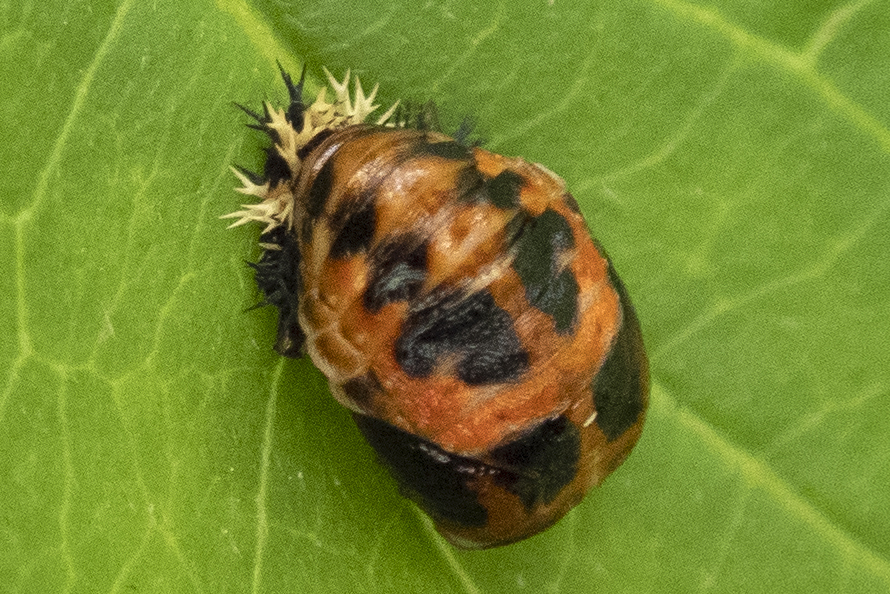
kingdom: Animalia
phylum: Arthropoda
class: Insecta
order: Coleoptera
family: Coccinellidae
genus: Harmonia
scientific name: Harmonia axyridis
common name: Harlequin ladybird
